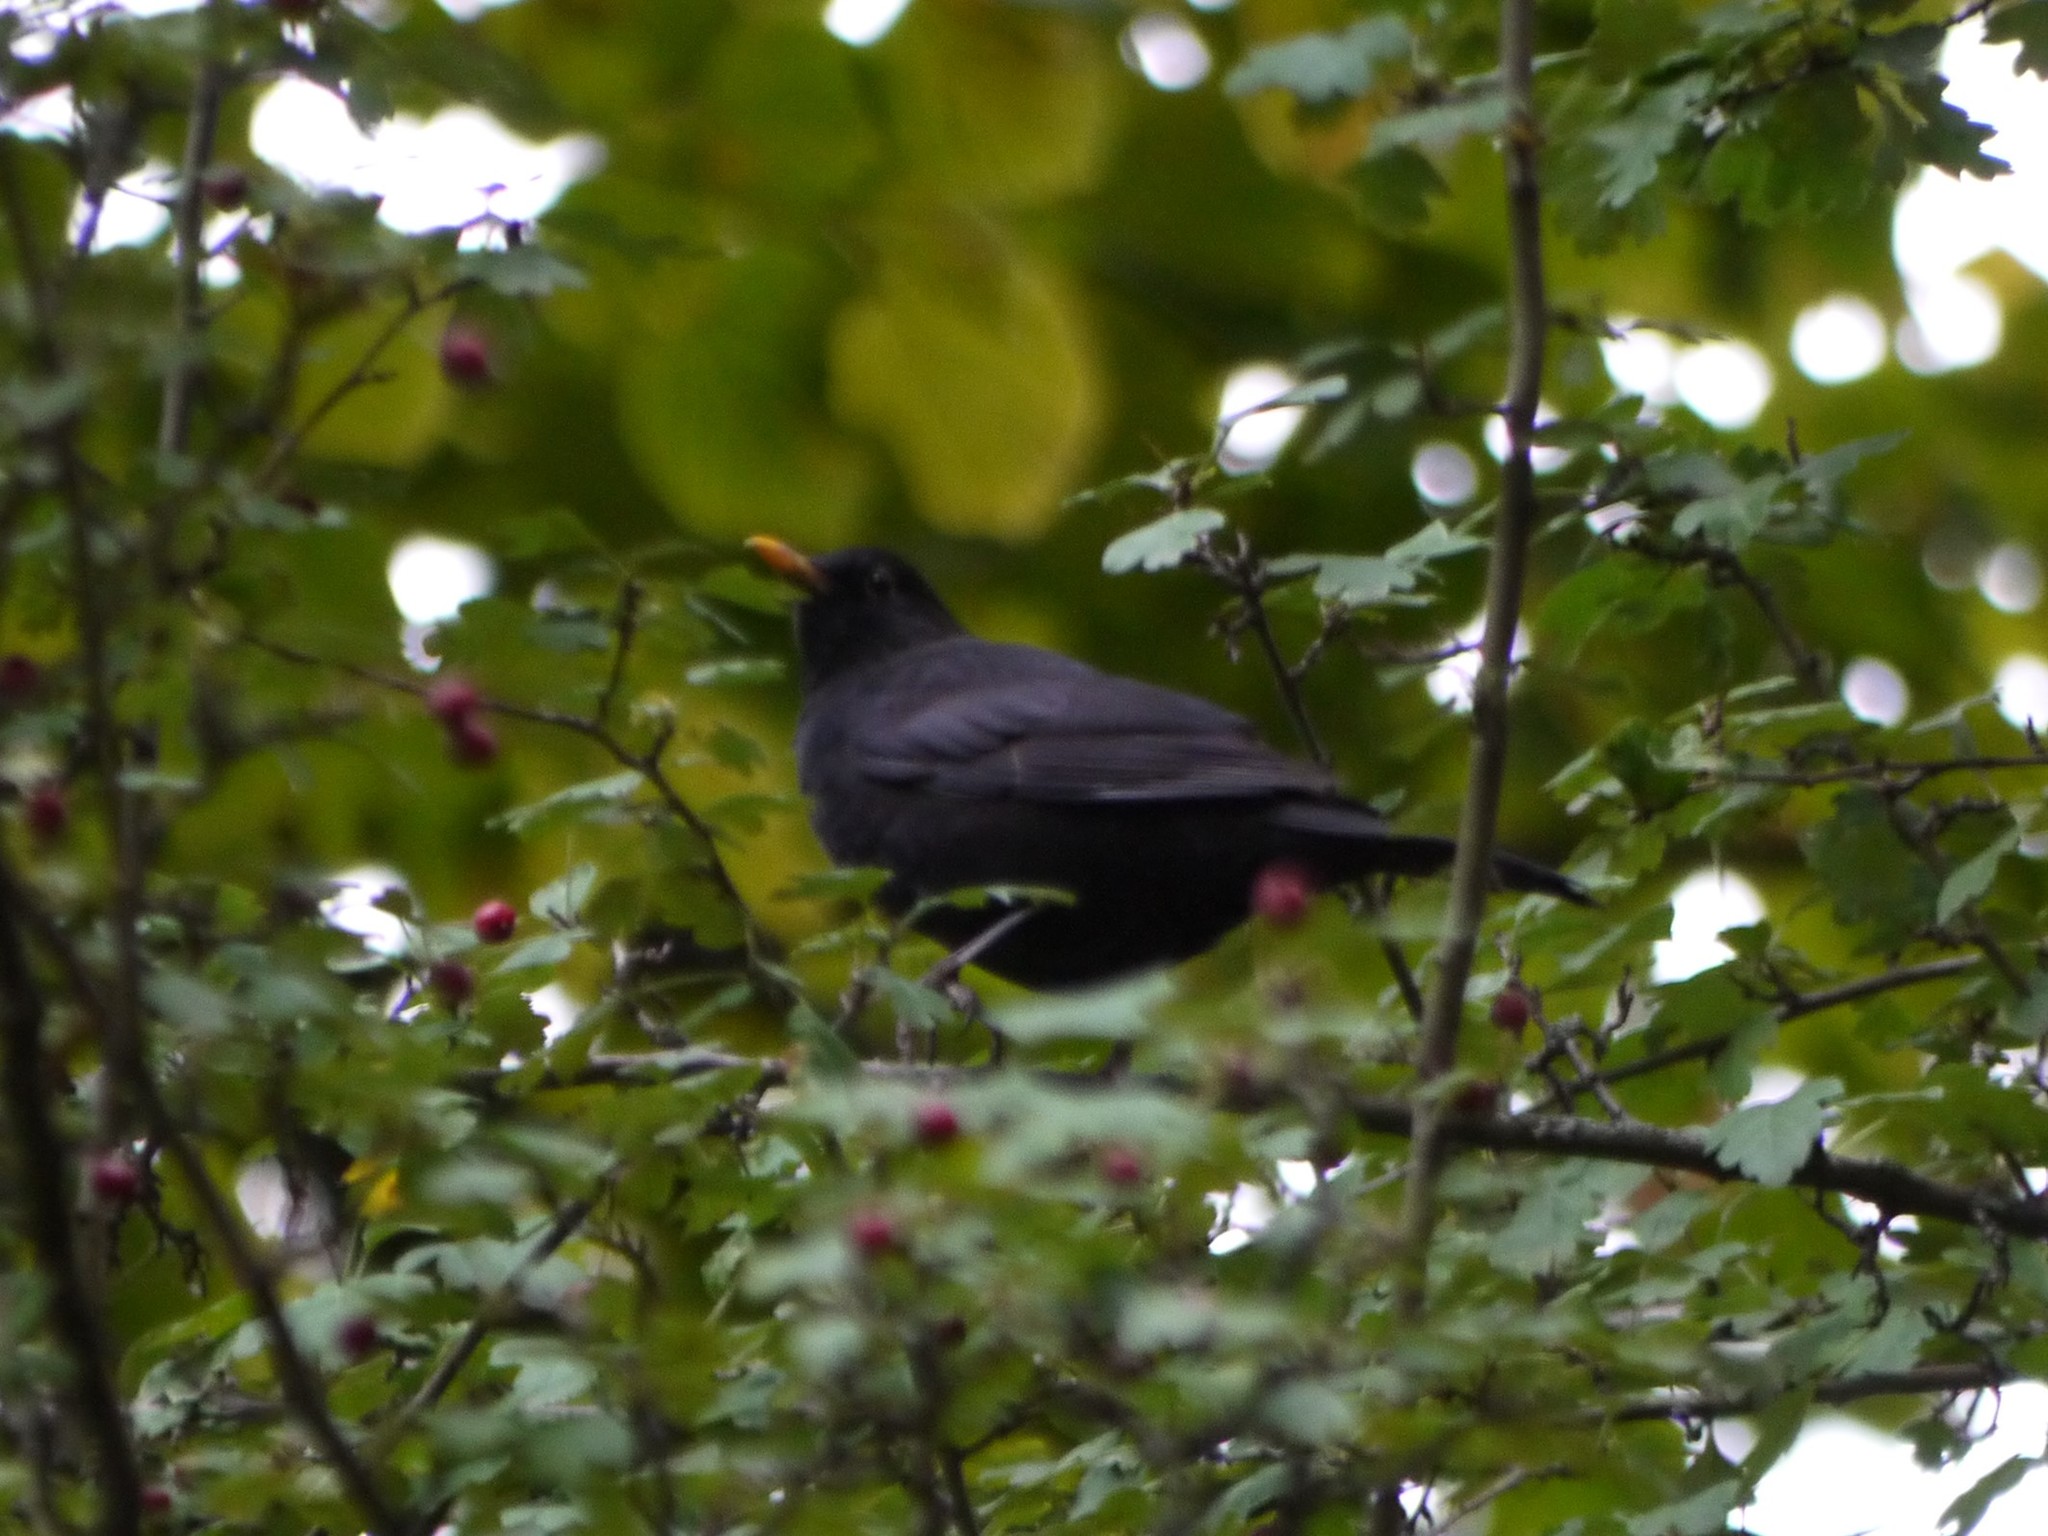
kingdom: Animalia
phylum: Chordata
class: Aves
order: Passeriformes
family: Turdidae
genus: Turdus
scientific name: Turdus merula
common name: Common blackbird
